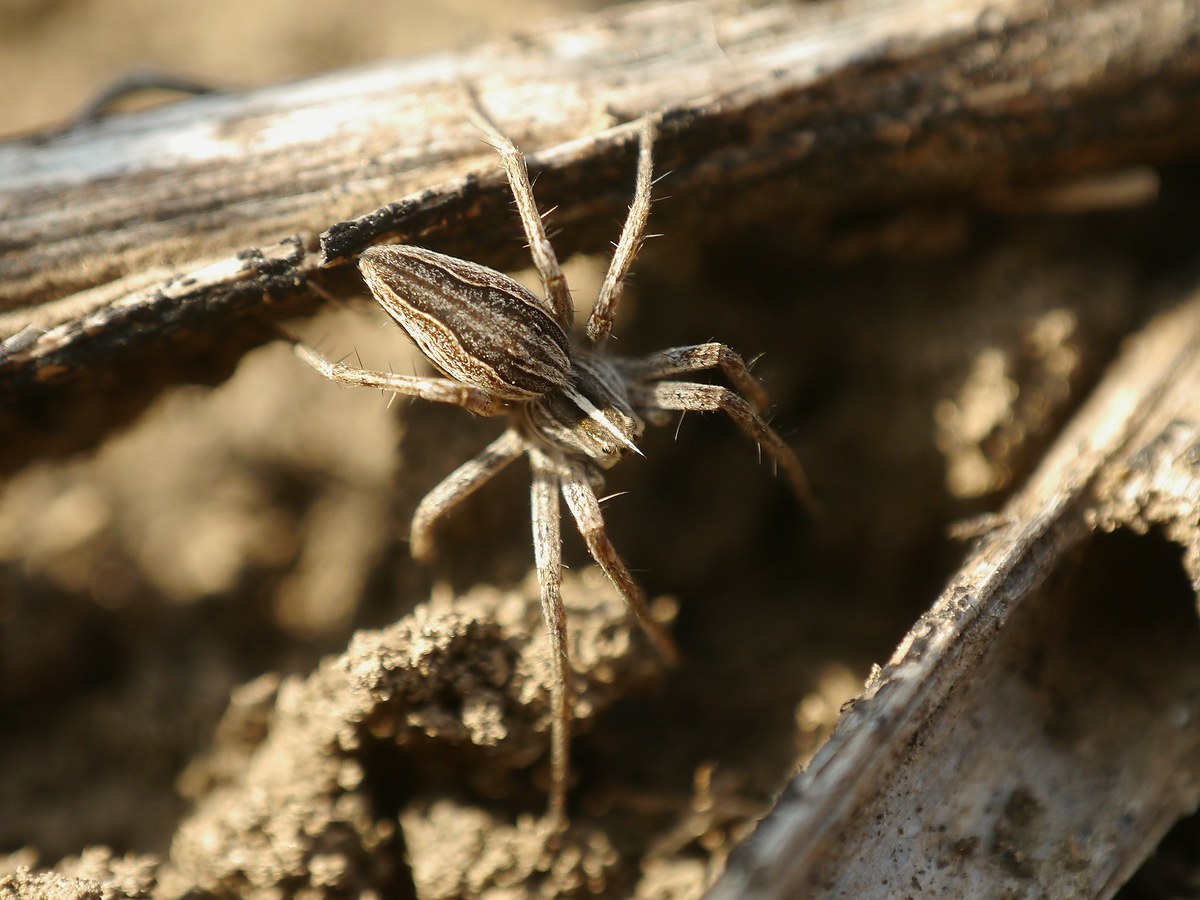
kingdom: Animalia
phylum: Arthropoda
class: Arachnida
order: Araneae
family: Pisauridae
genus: Pisaura
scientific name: Pisaura
